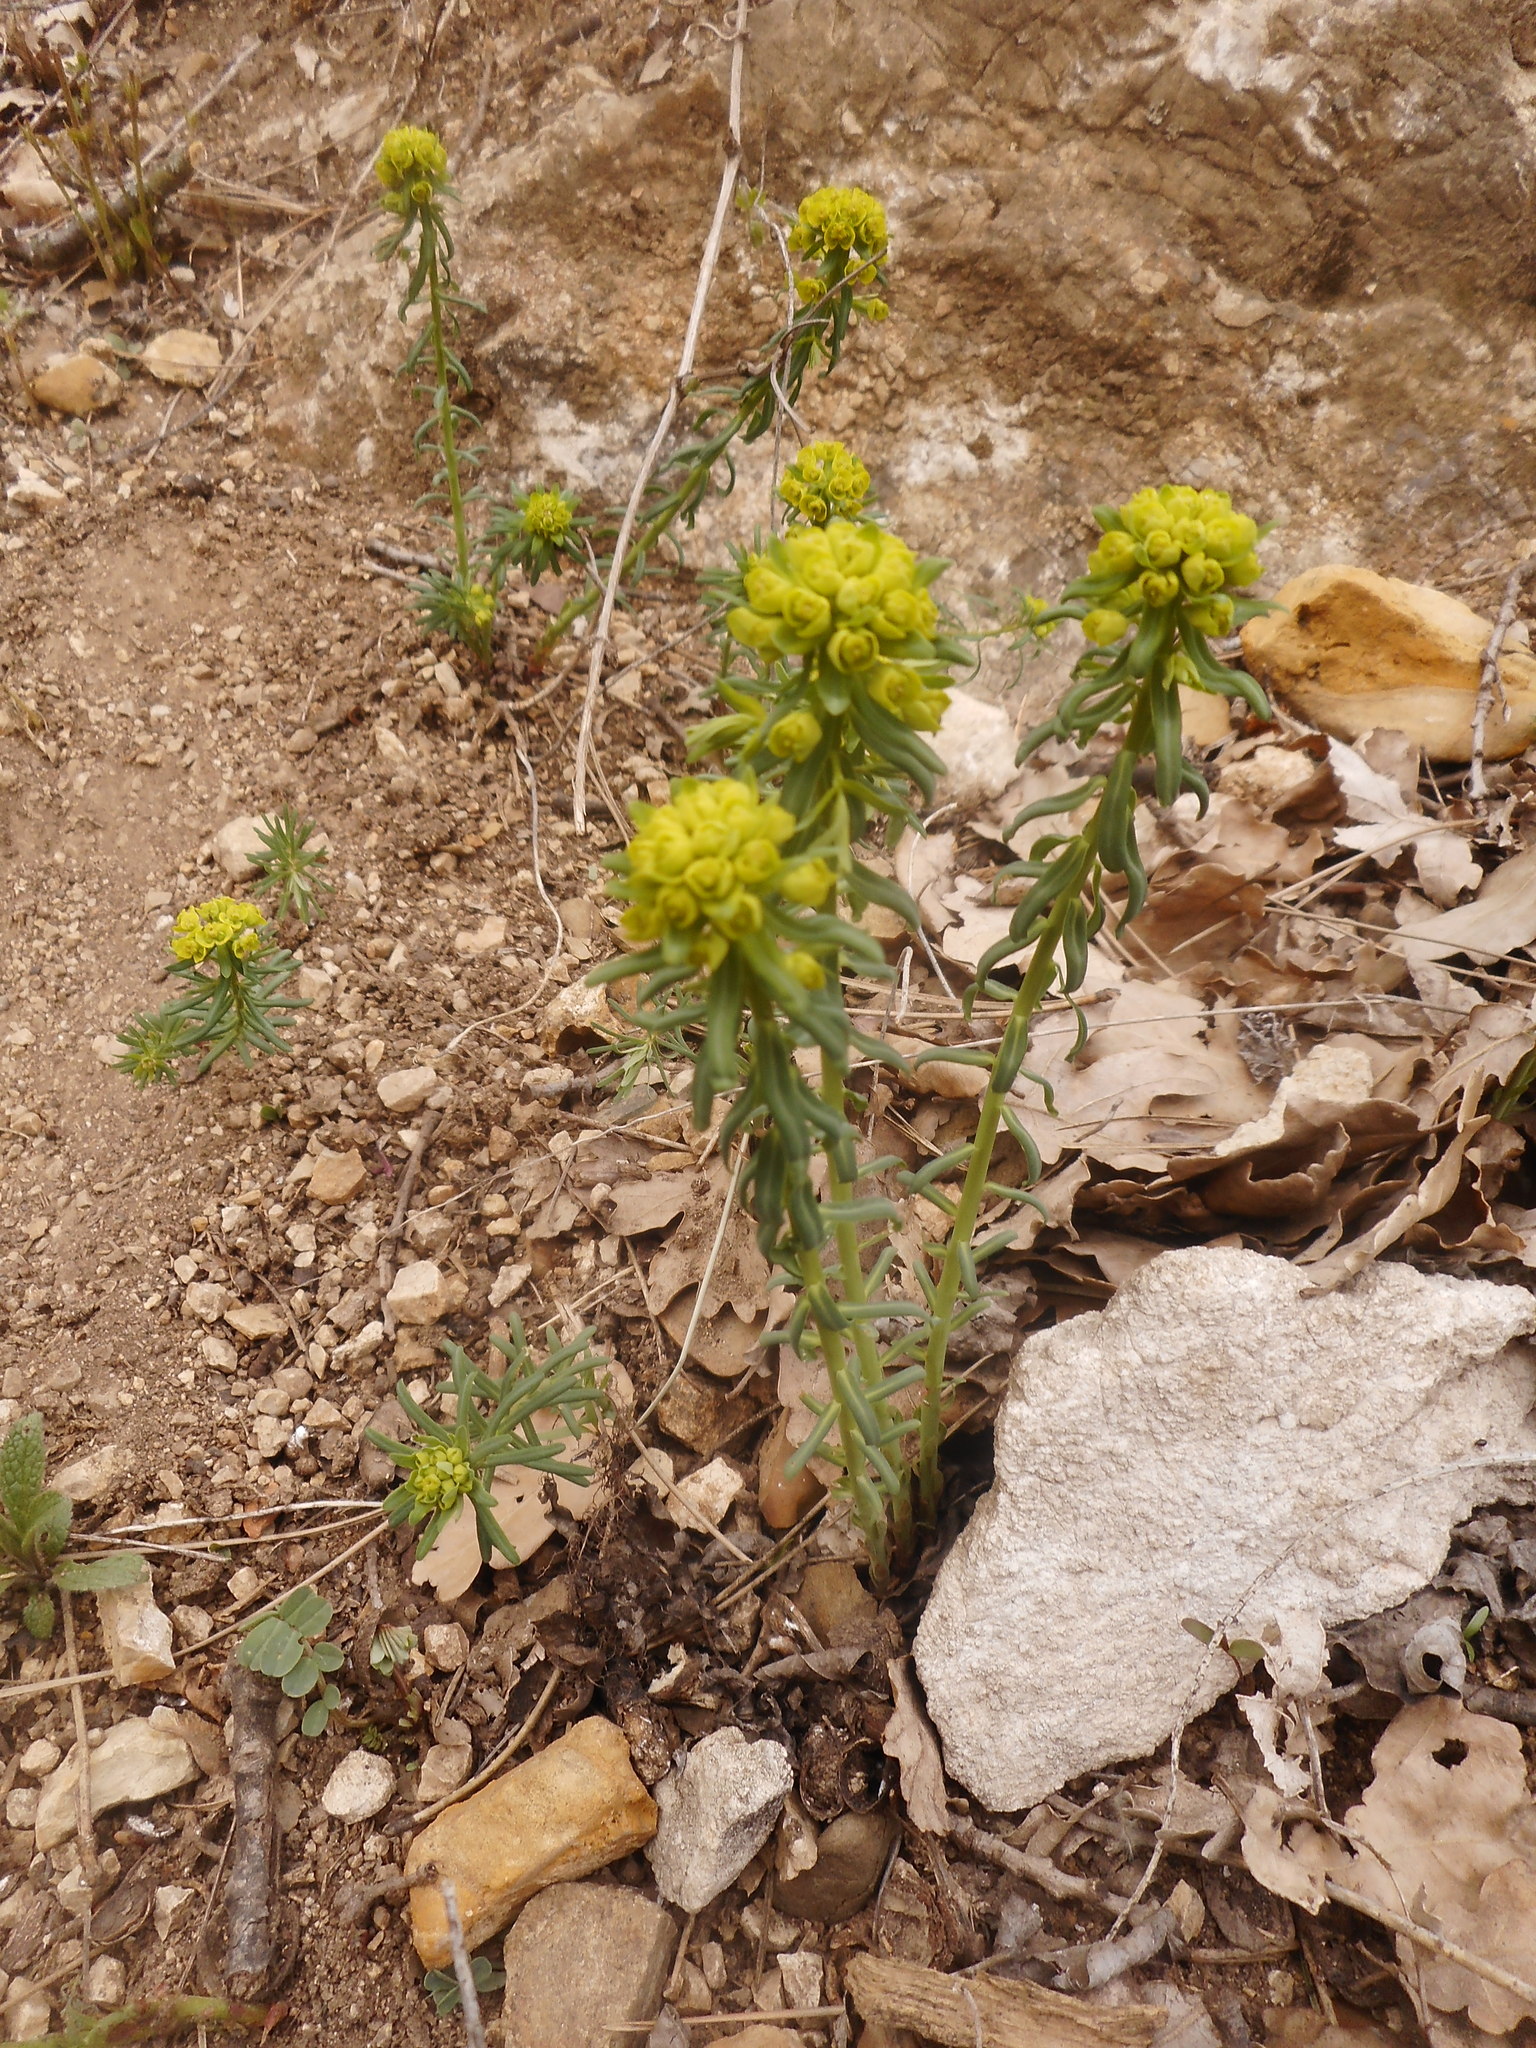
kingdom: Plantae
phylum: Tracheophyta
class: Magnoliopsida
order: Malpighiales
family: Euphorbiaceae
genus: Euphorbia
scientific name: Euphorbia cyparissias
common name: Cypress spurge
